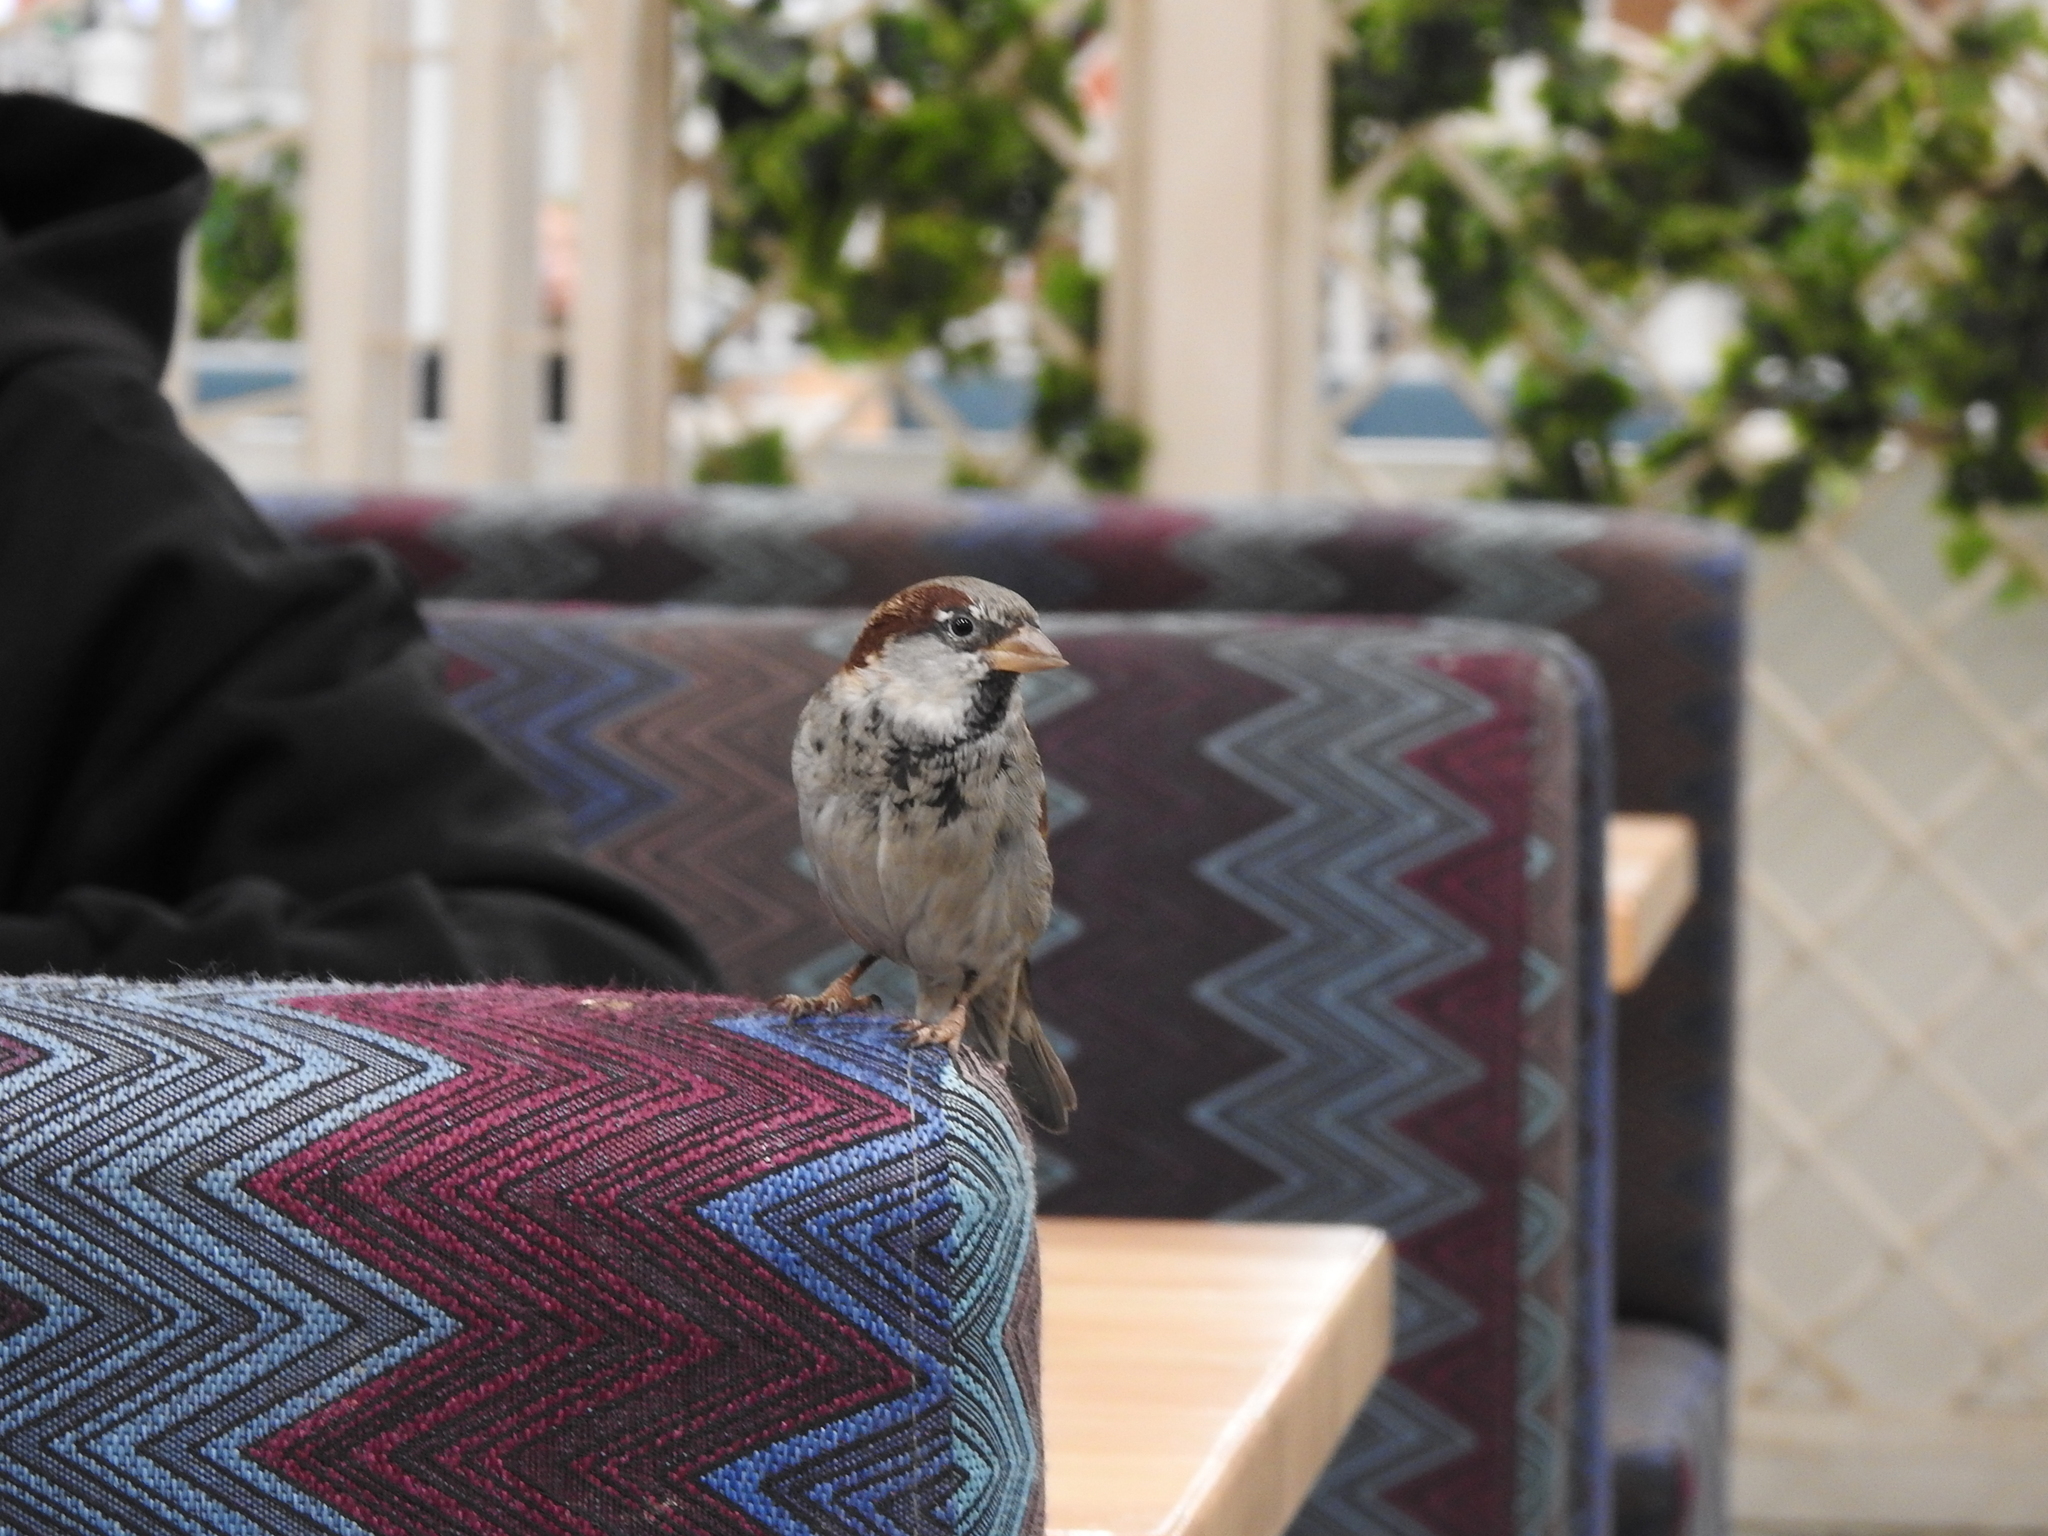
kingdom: Animalia
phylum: Chordata
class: Aves
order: Passeriformes
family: Passeridae
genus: Passer
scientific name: Passer domesticus
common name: House sparrow
